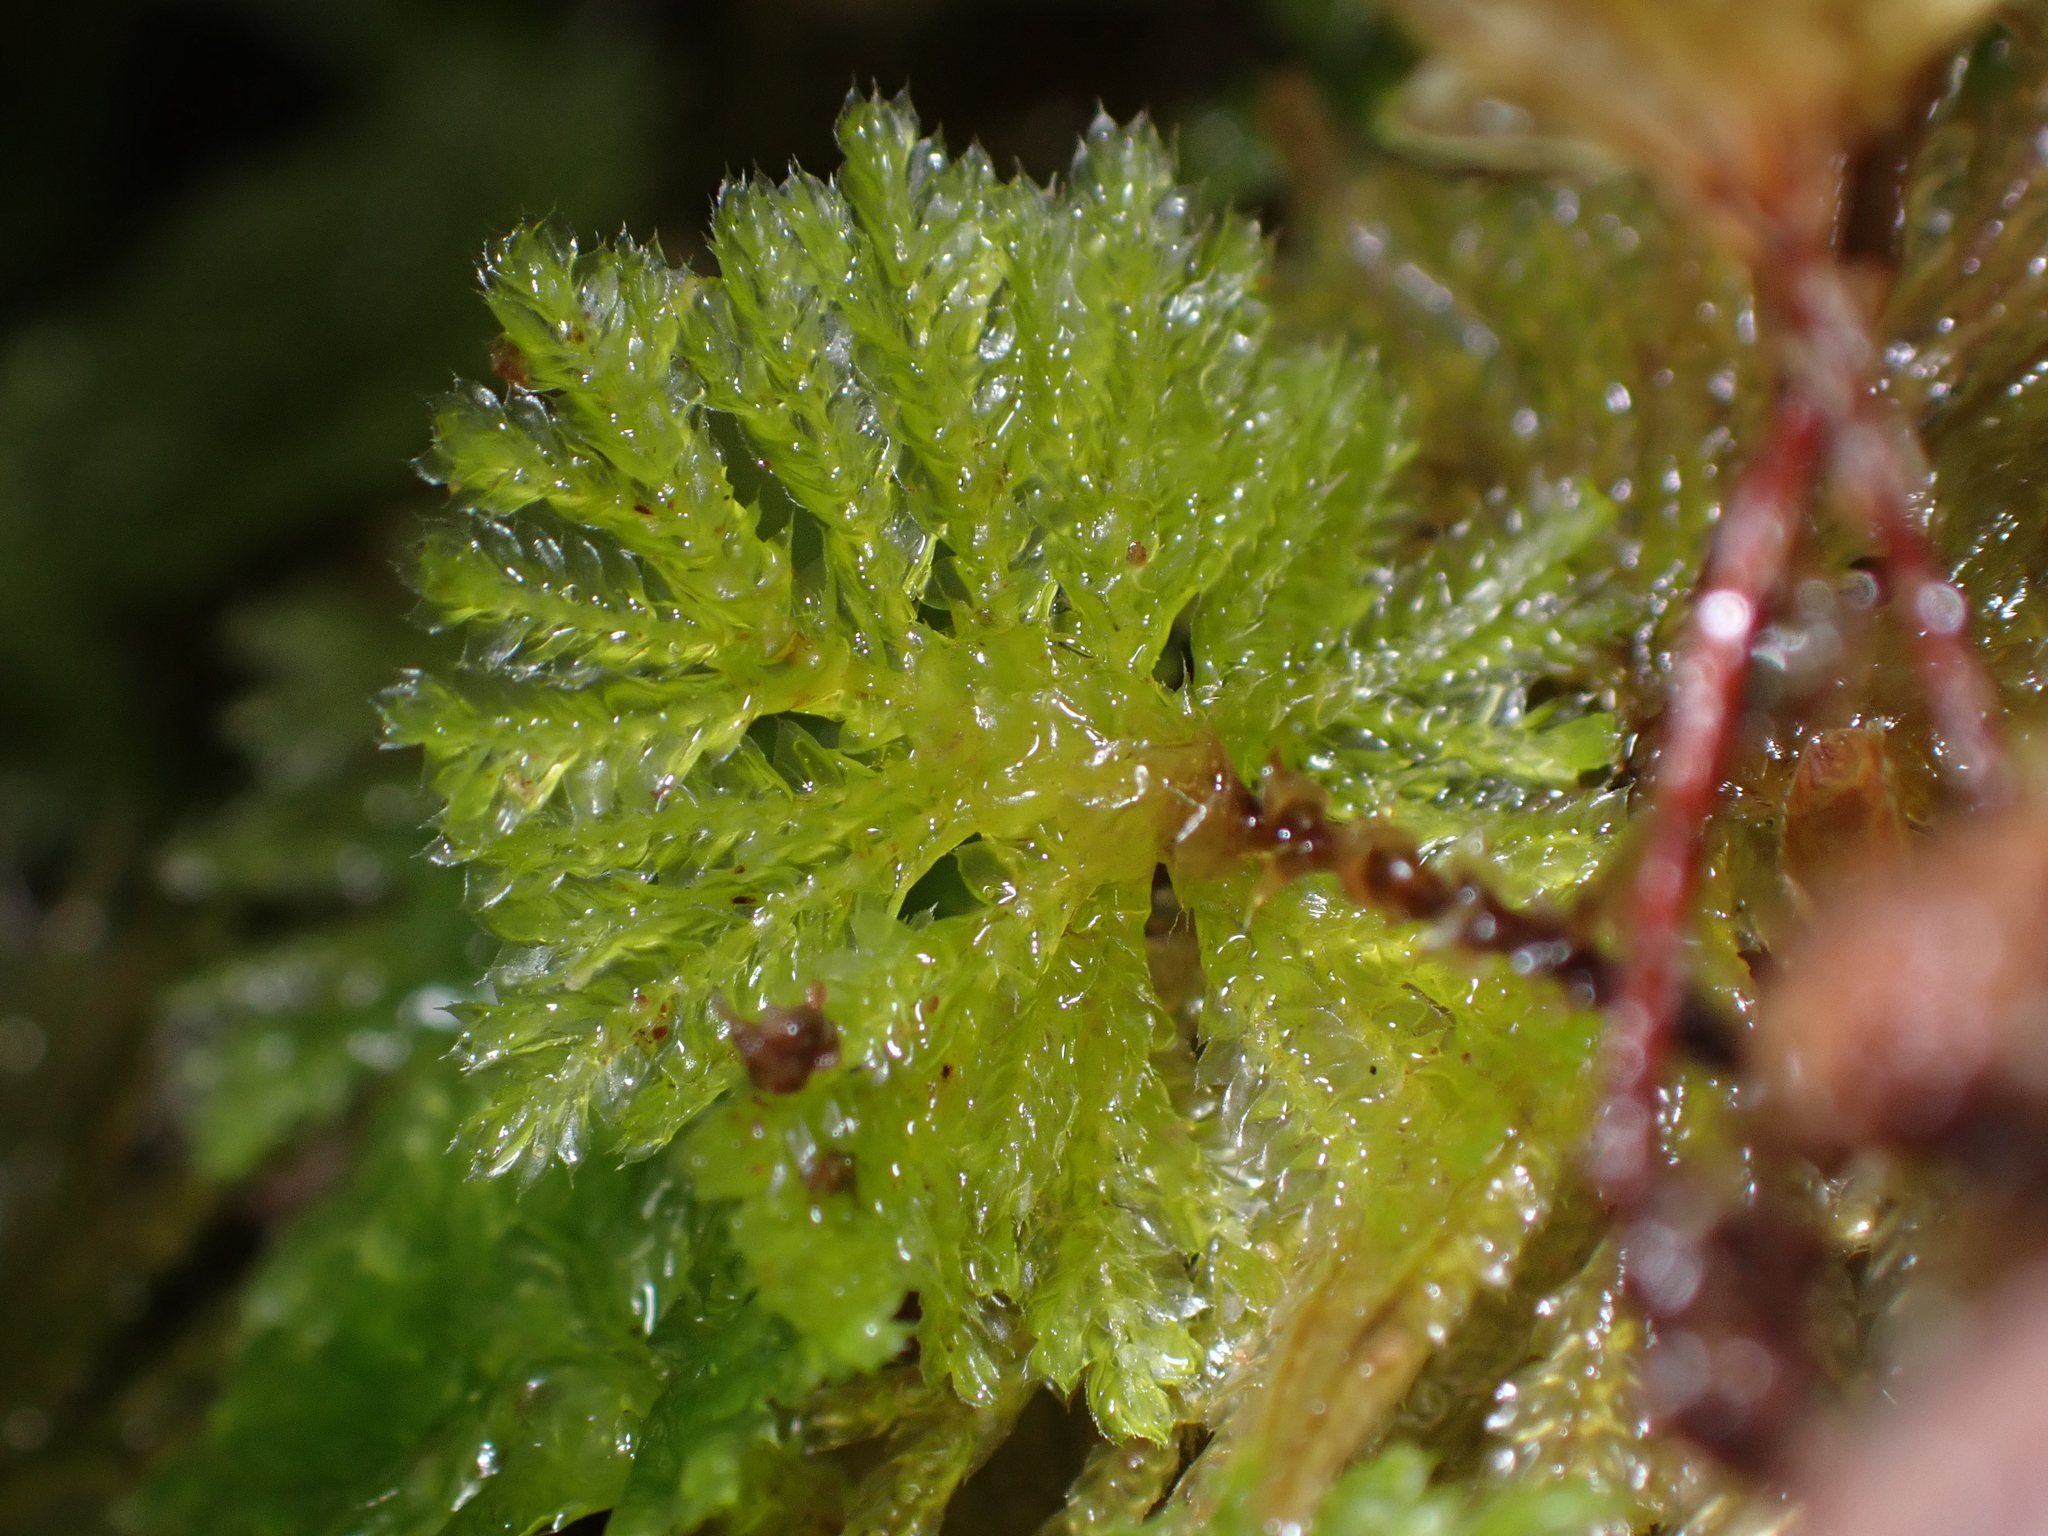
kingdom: Plantae
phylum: Bryophyta
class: Bryopsida
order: Hypopterygiales
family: Hypopterygiaceae
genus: Canalohypopterygium
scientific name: Canalohypopterygium tamariscinum
